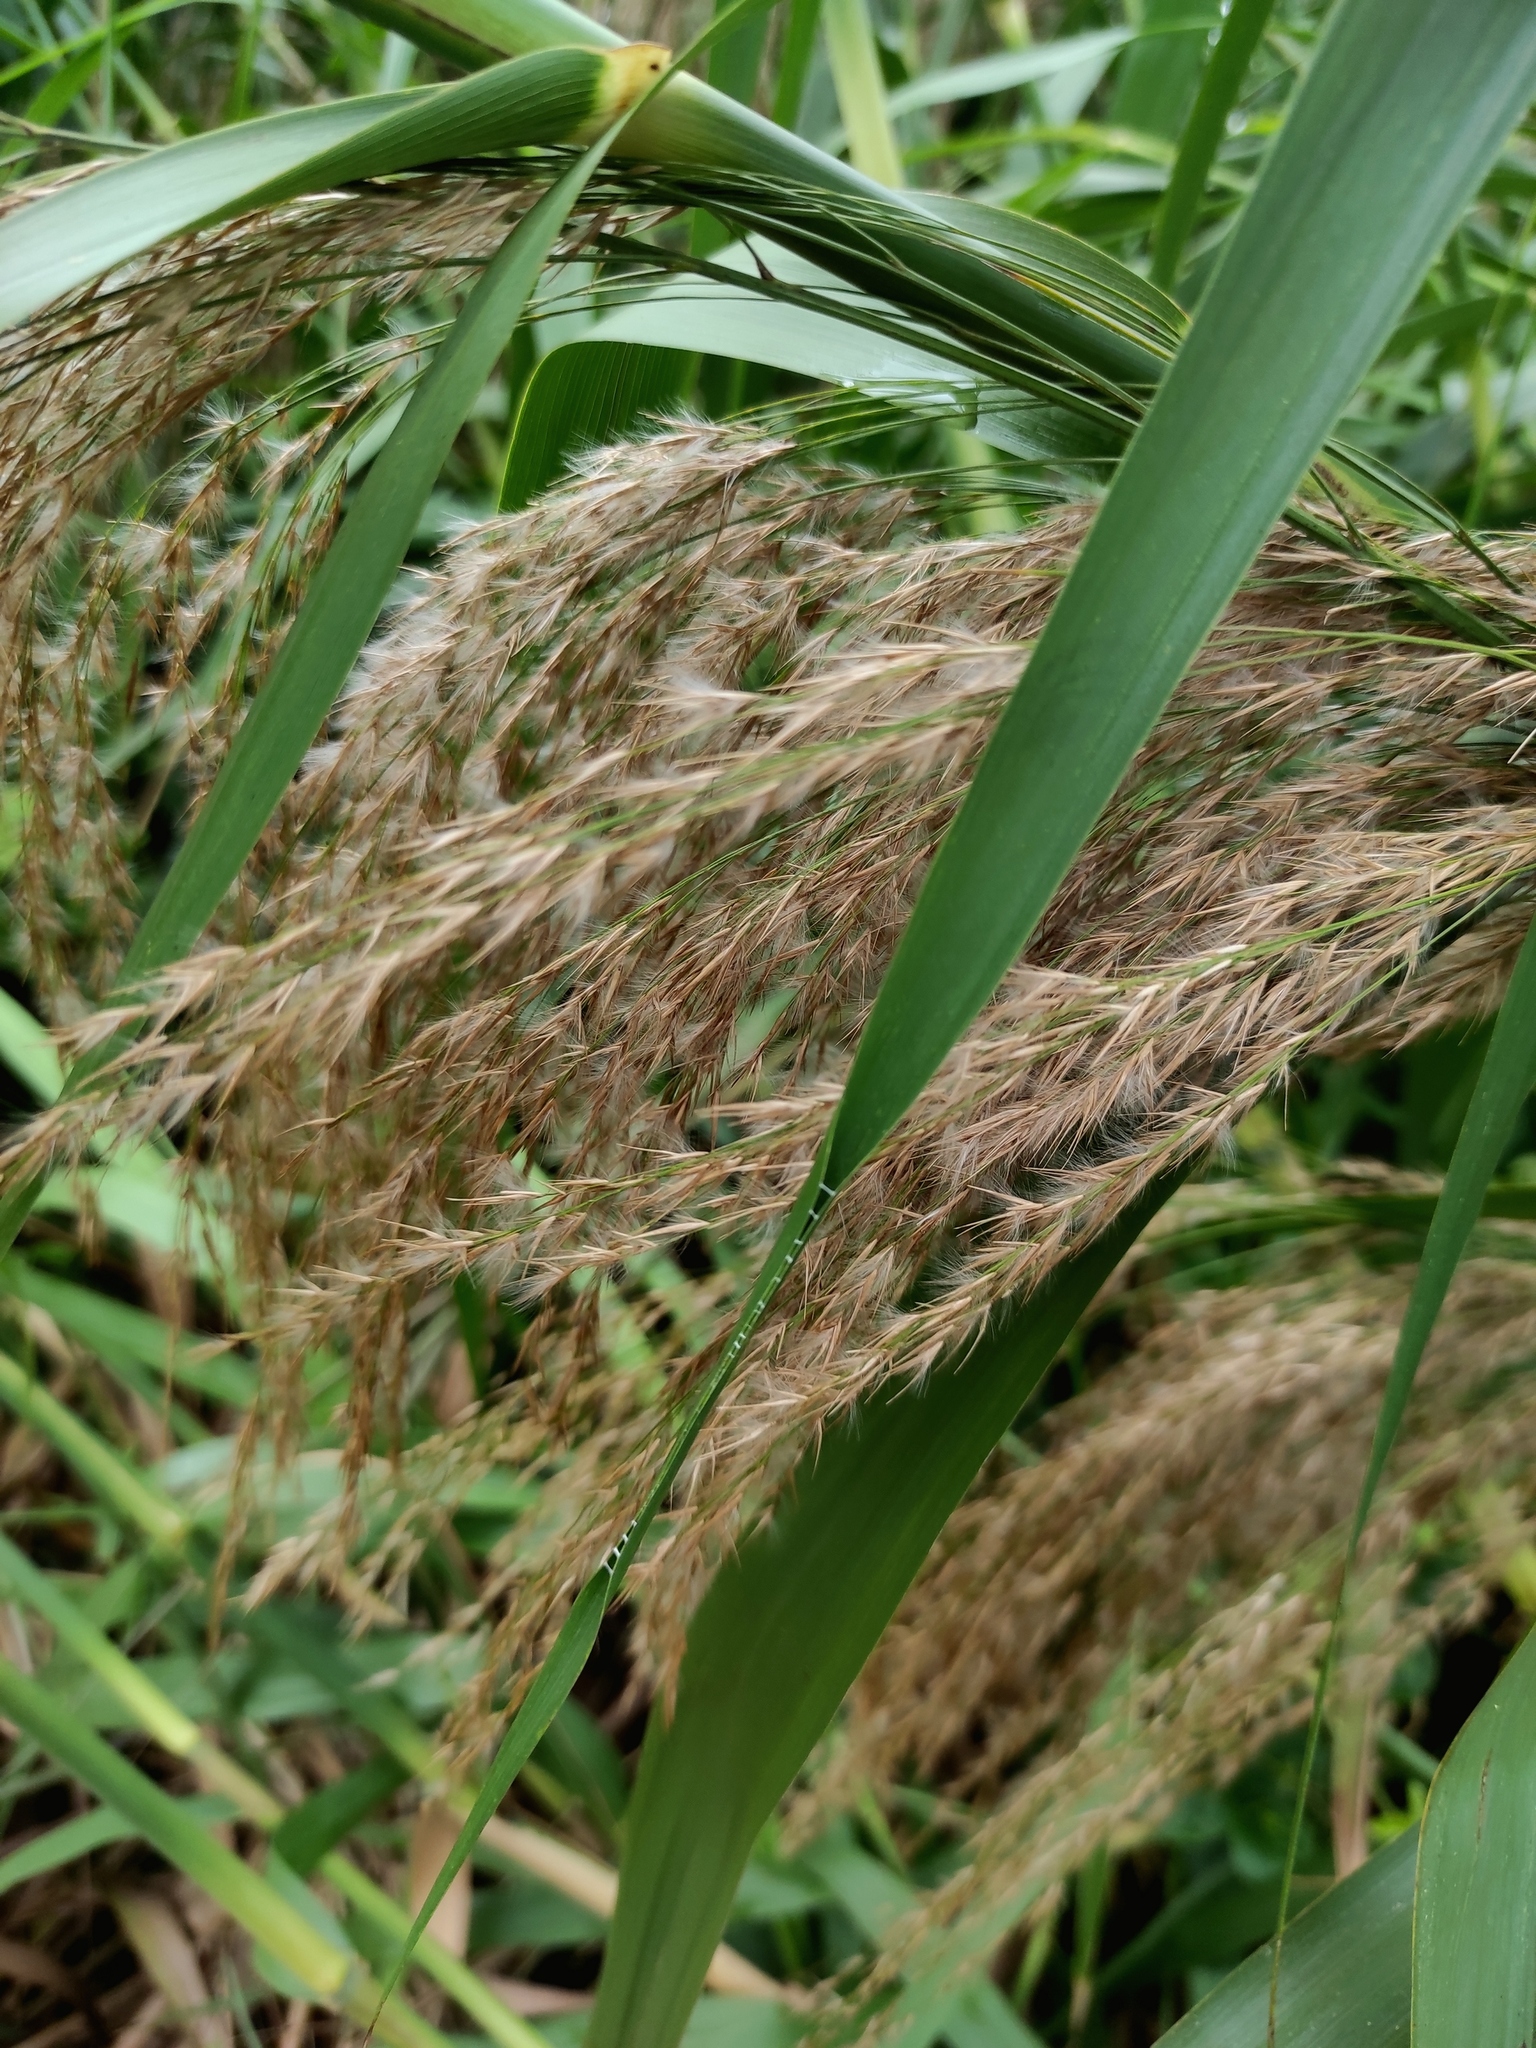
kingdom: Plantae
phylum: Tracheophyta
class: Liliopsida
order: Poales
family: Poaceae
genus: Phragmites
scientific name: Phragmites karka
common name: Tropical reed
